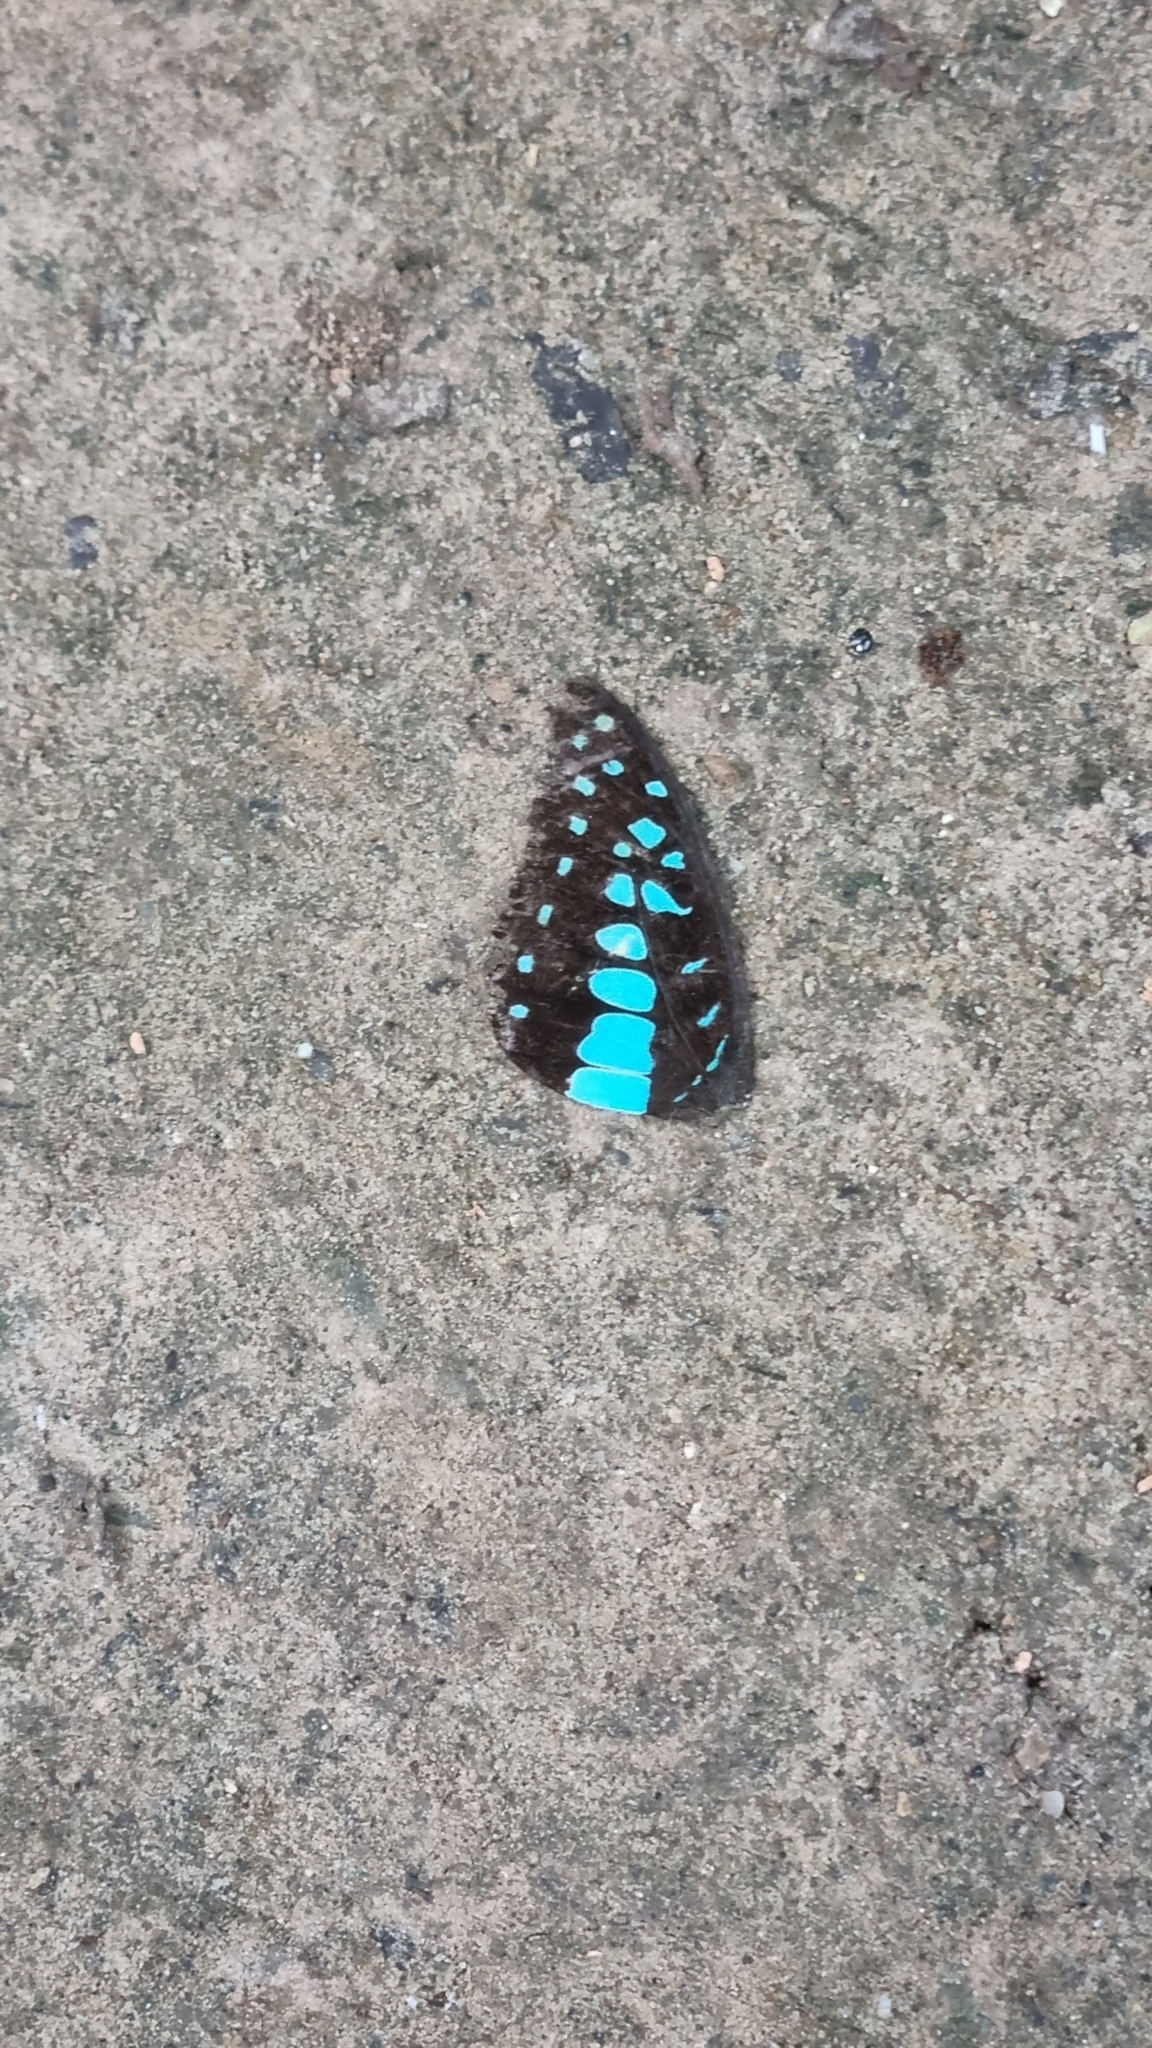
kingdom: Animalia
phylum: Arthropoda
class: Insecta
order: Lepidoptera
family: Papilionidae
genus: Graphium
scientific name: Graphium doson
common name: Common jay
